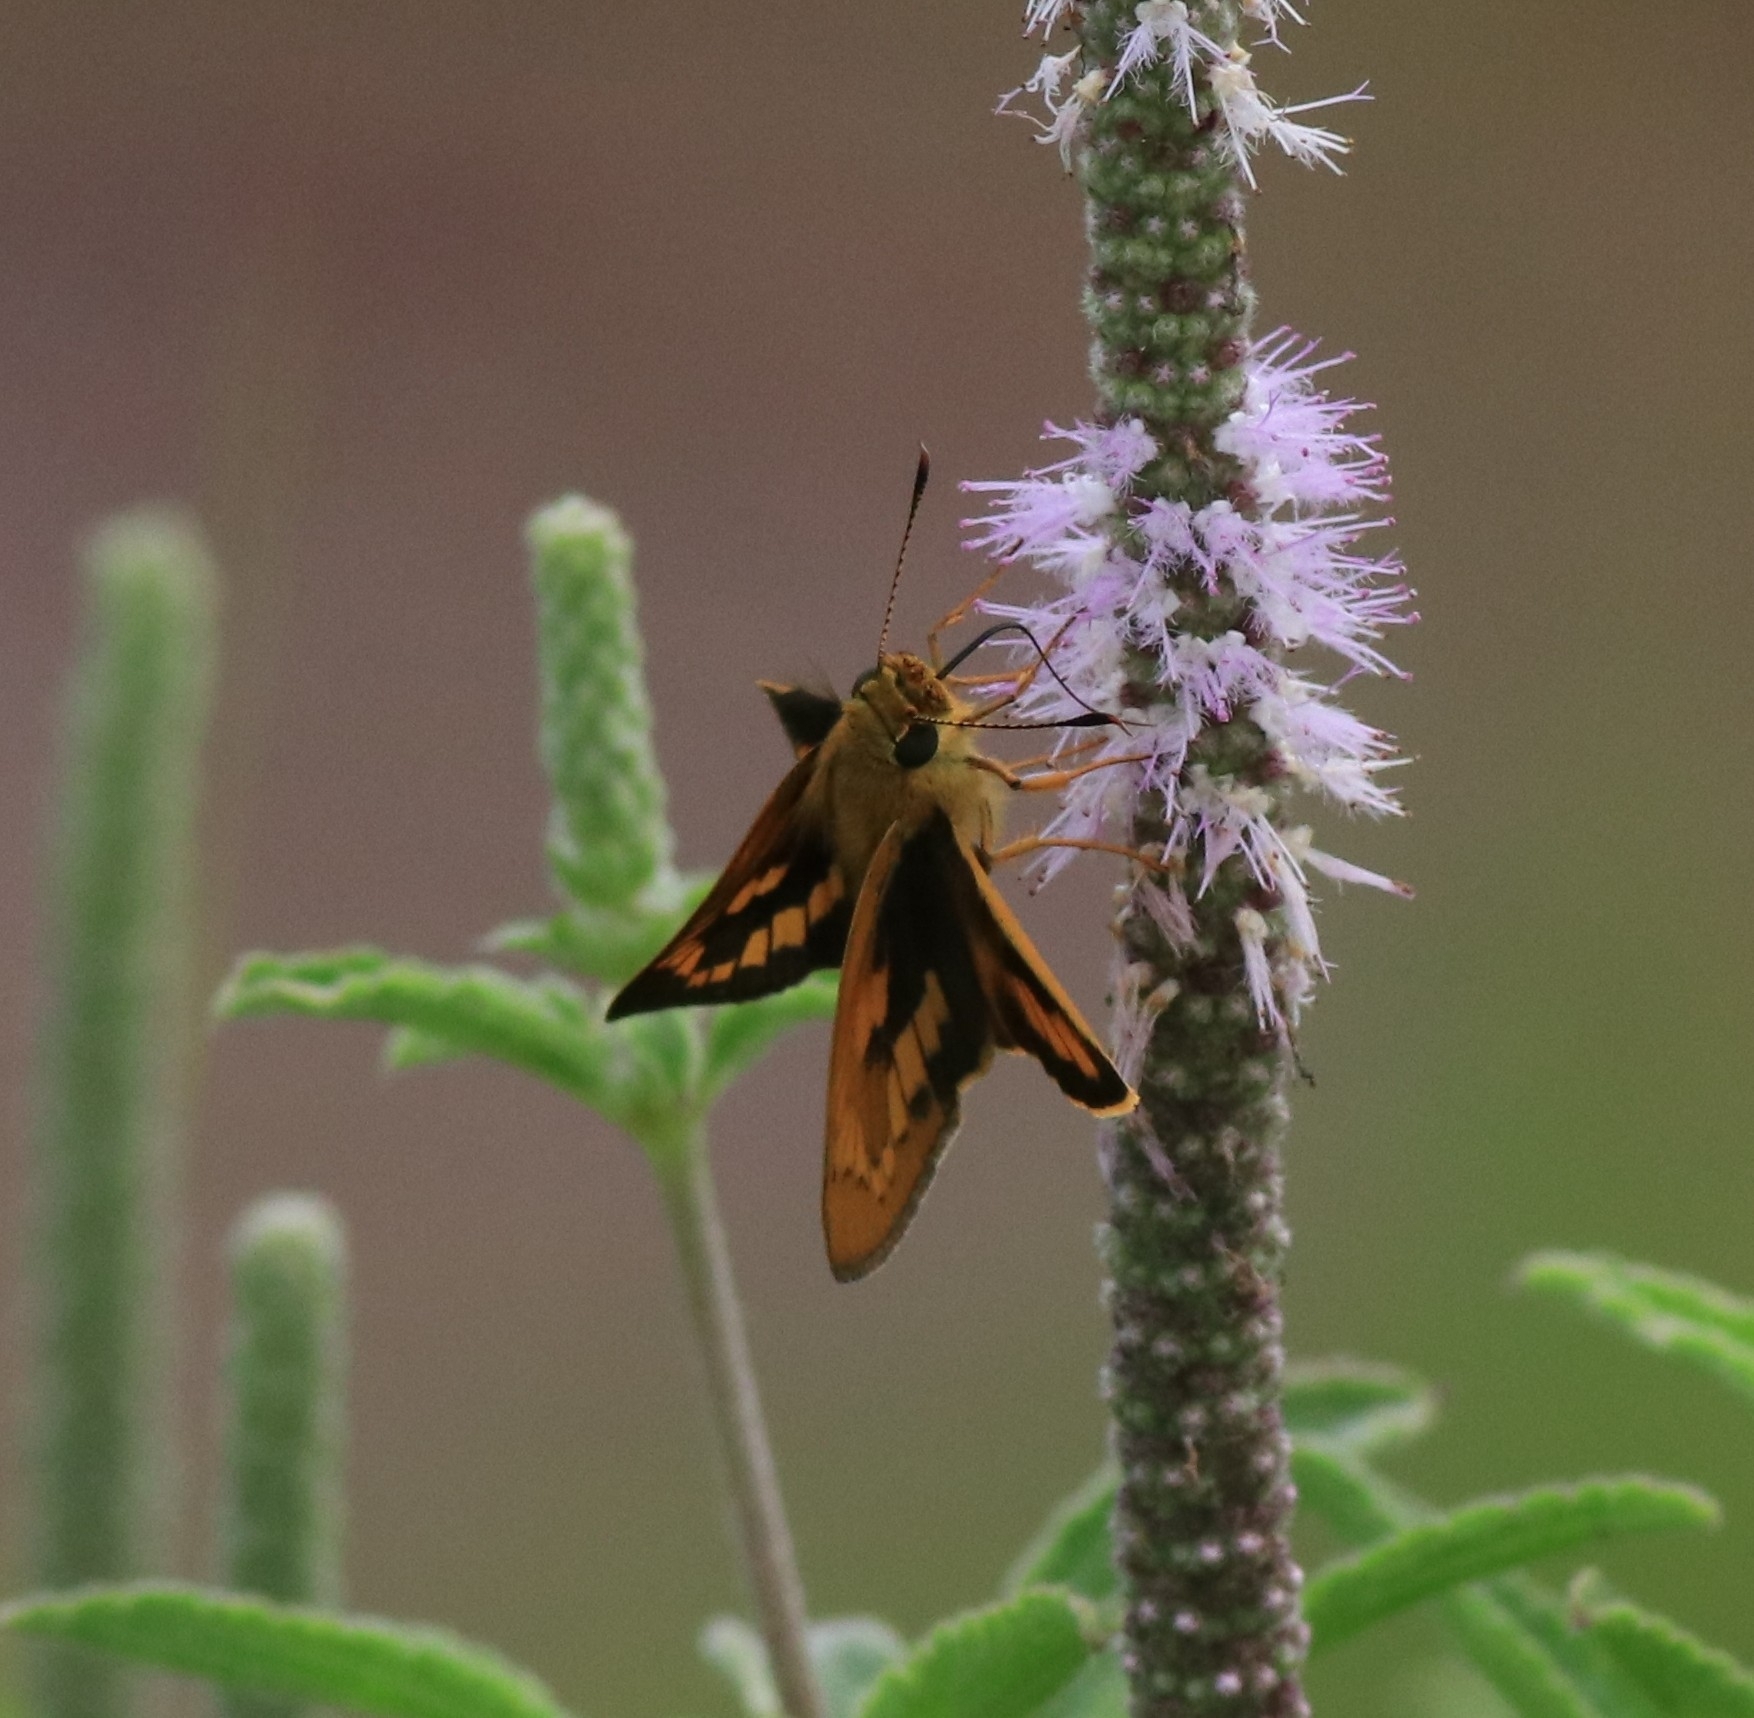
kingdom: Animalia
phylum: Arthropoda
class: Insecta
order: Lepidoptera
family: Hesperiidae
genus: Telicota
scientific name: Telicota bambusae
